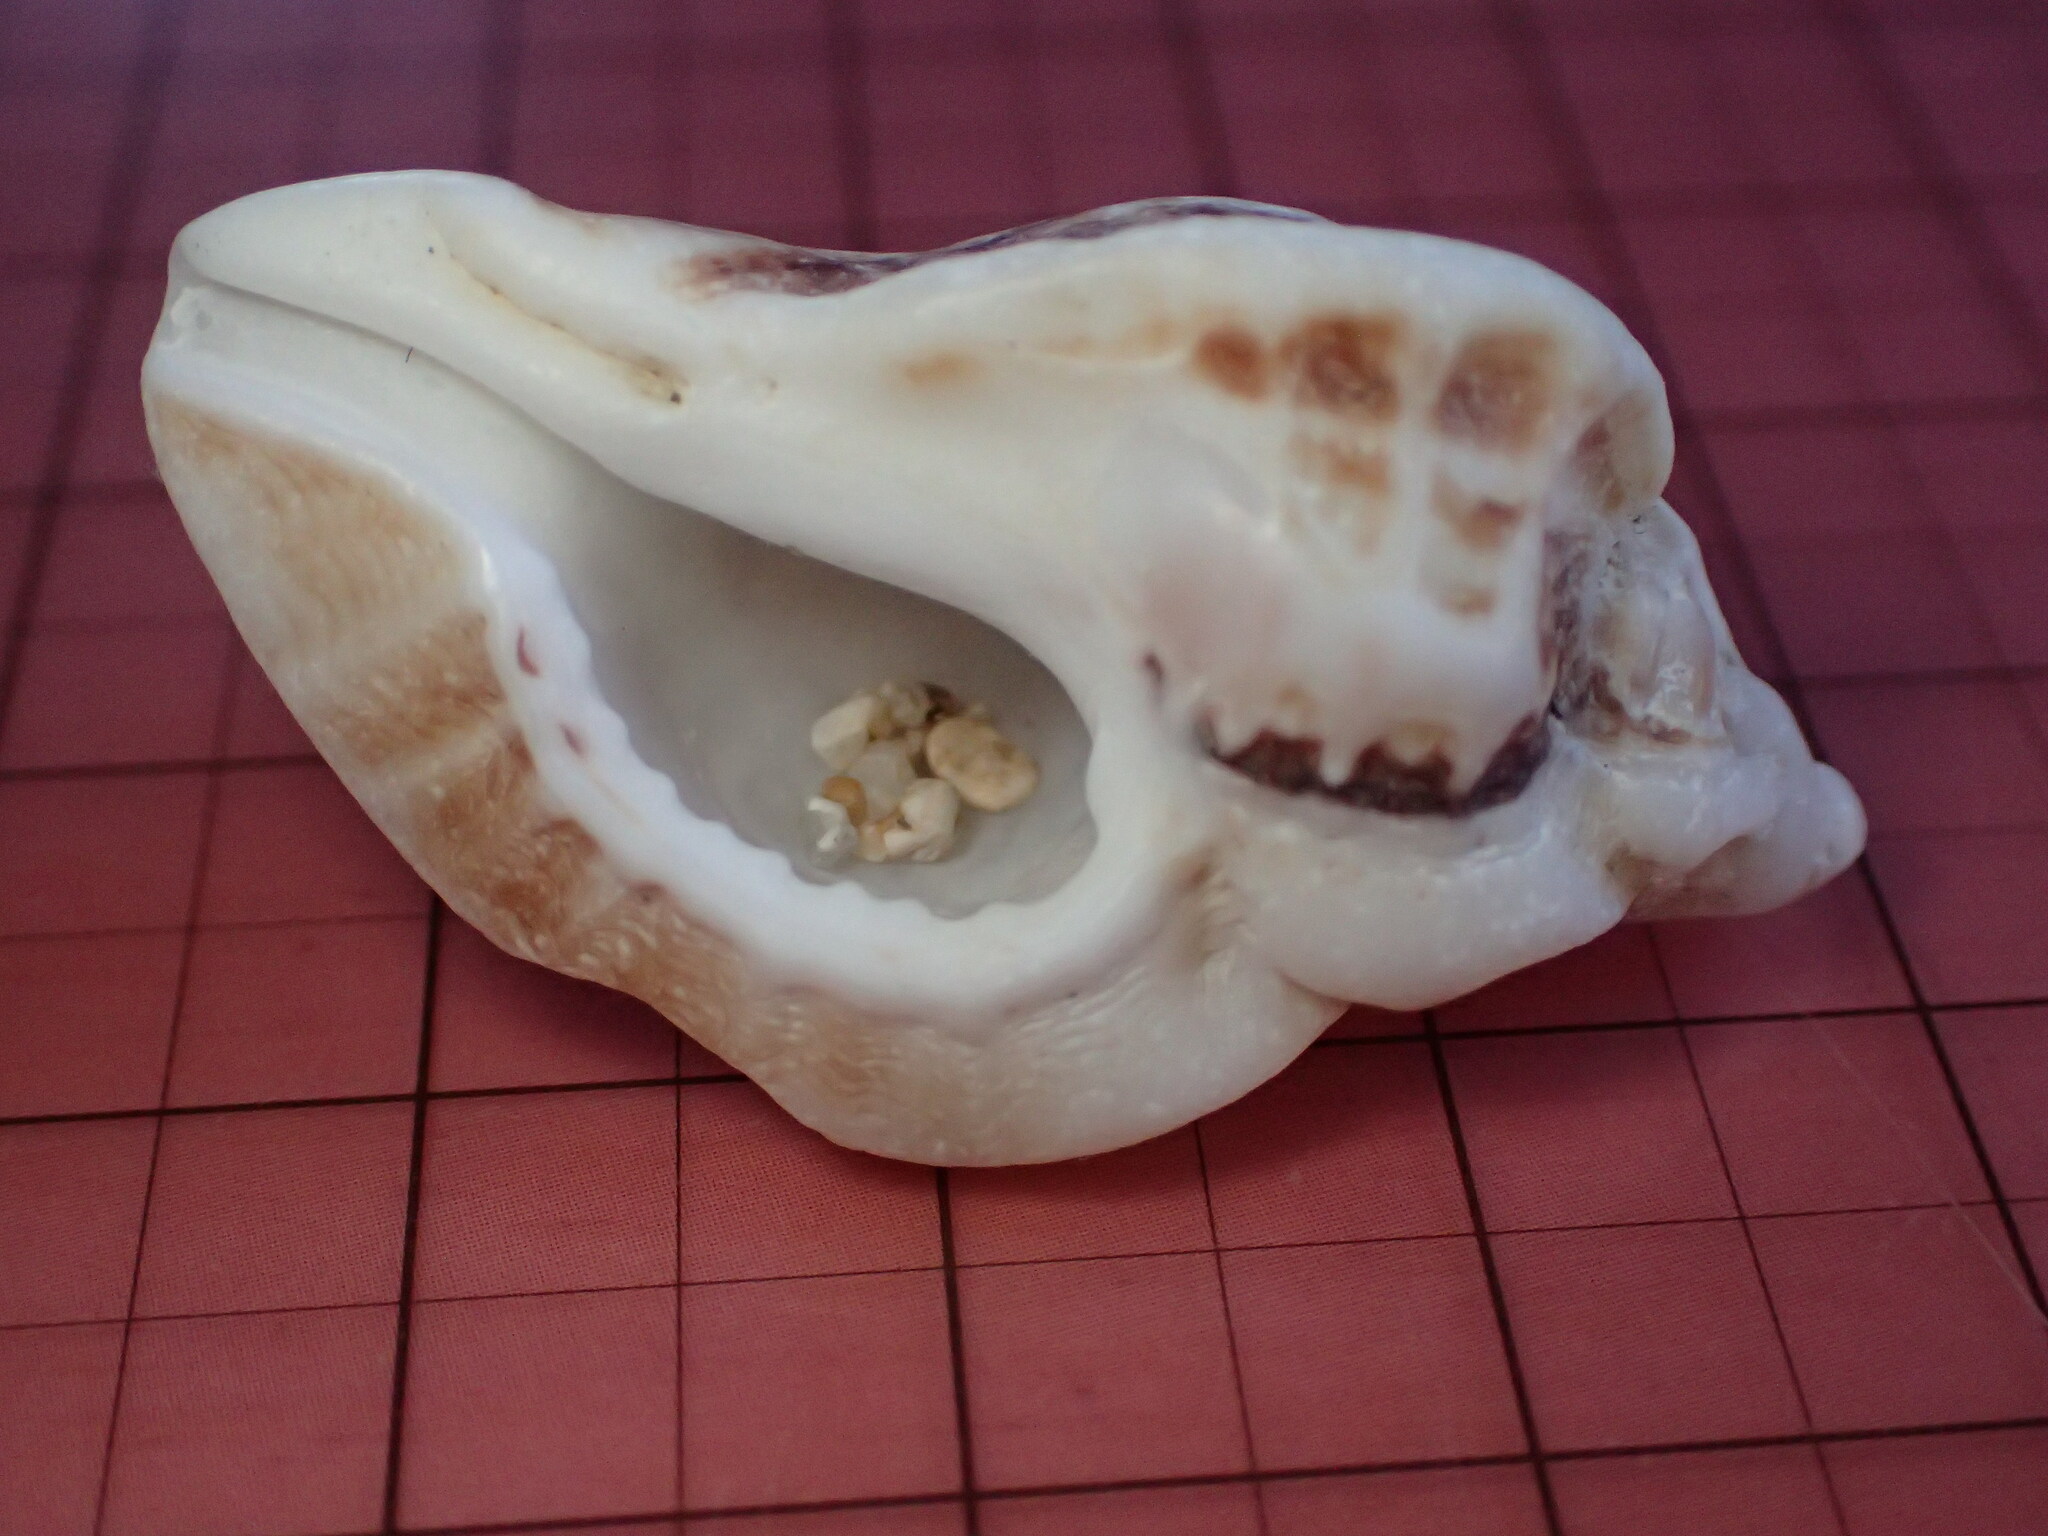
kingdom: Animalia
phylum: Mollusca
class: Gastropoda
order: Neogastropoda
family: Muricidae
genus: Ceratostoma
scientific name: Ceratostoma foliatum
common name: Foliate thorn purpura
